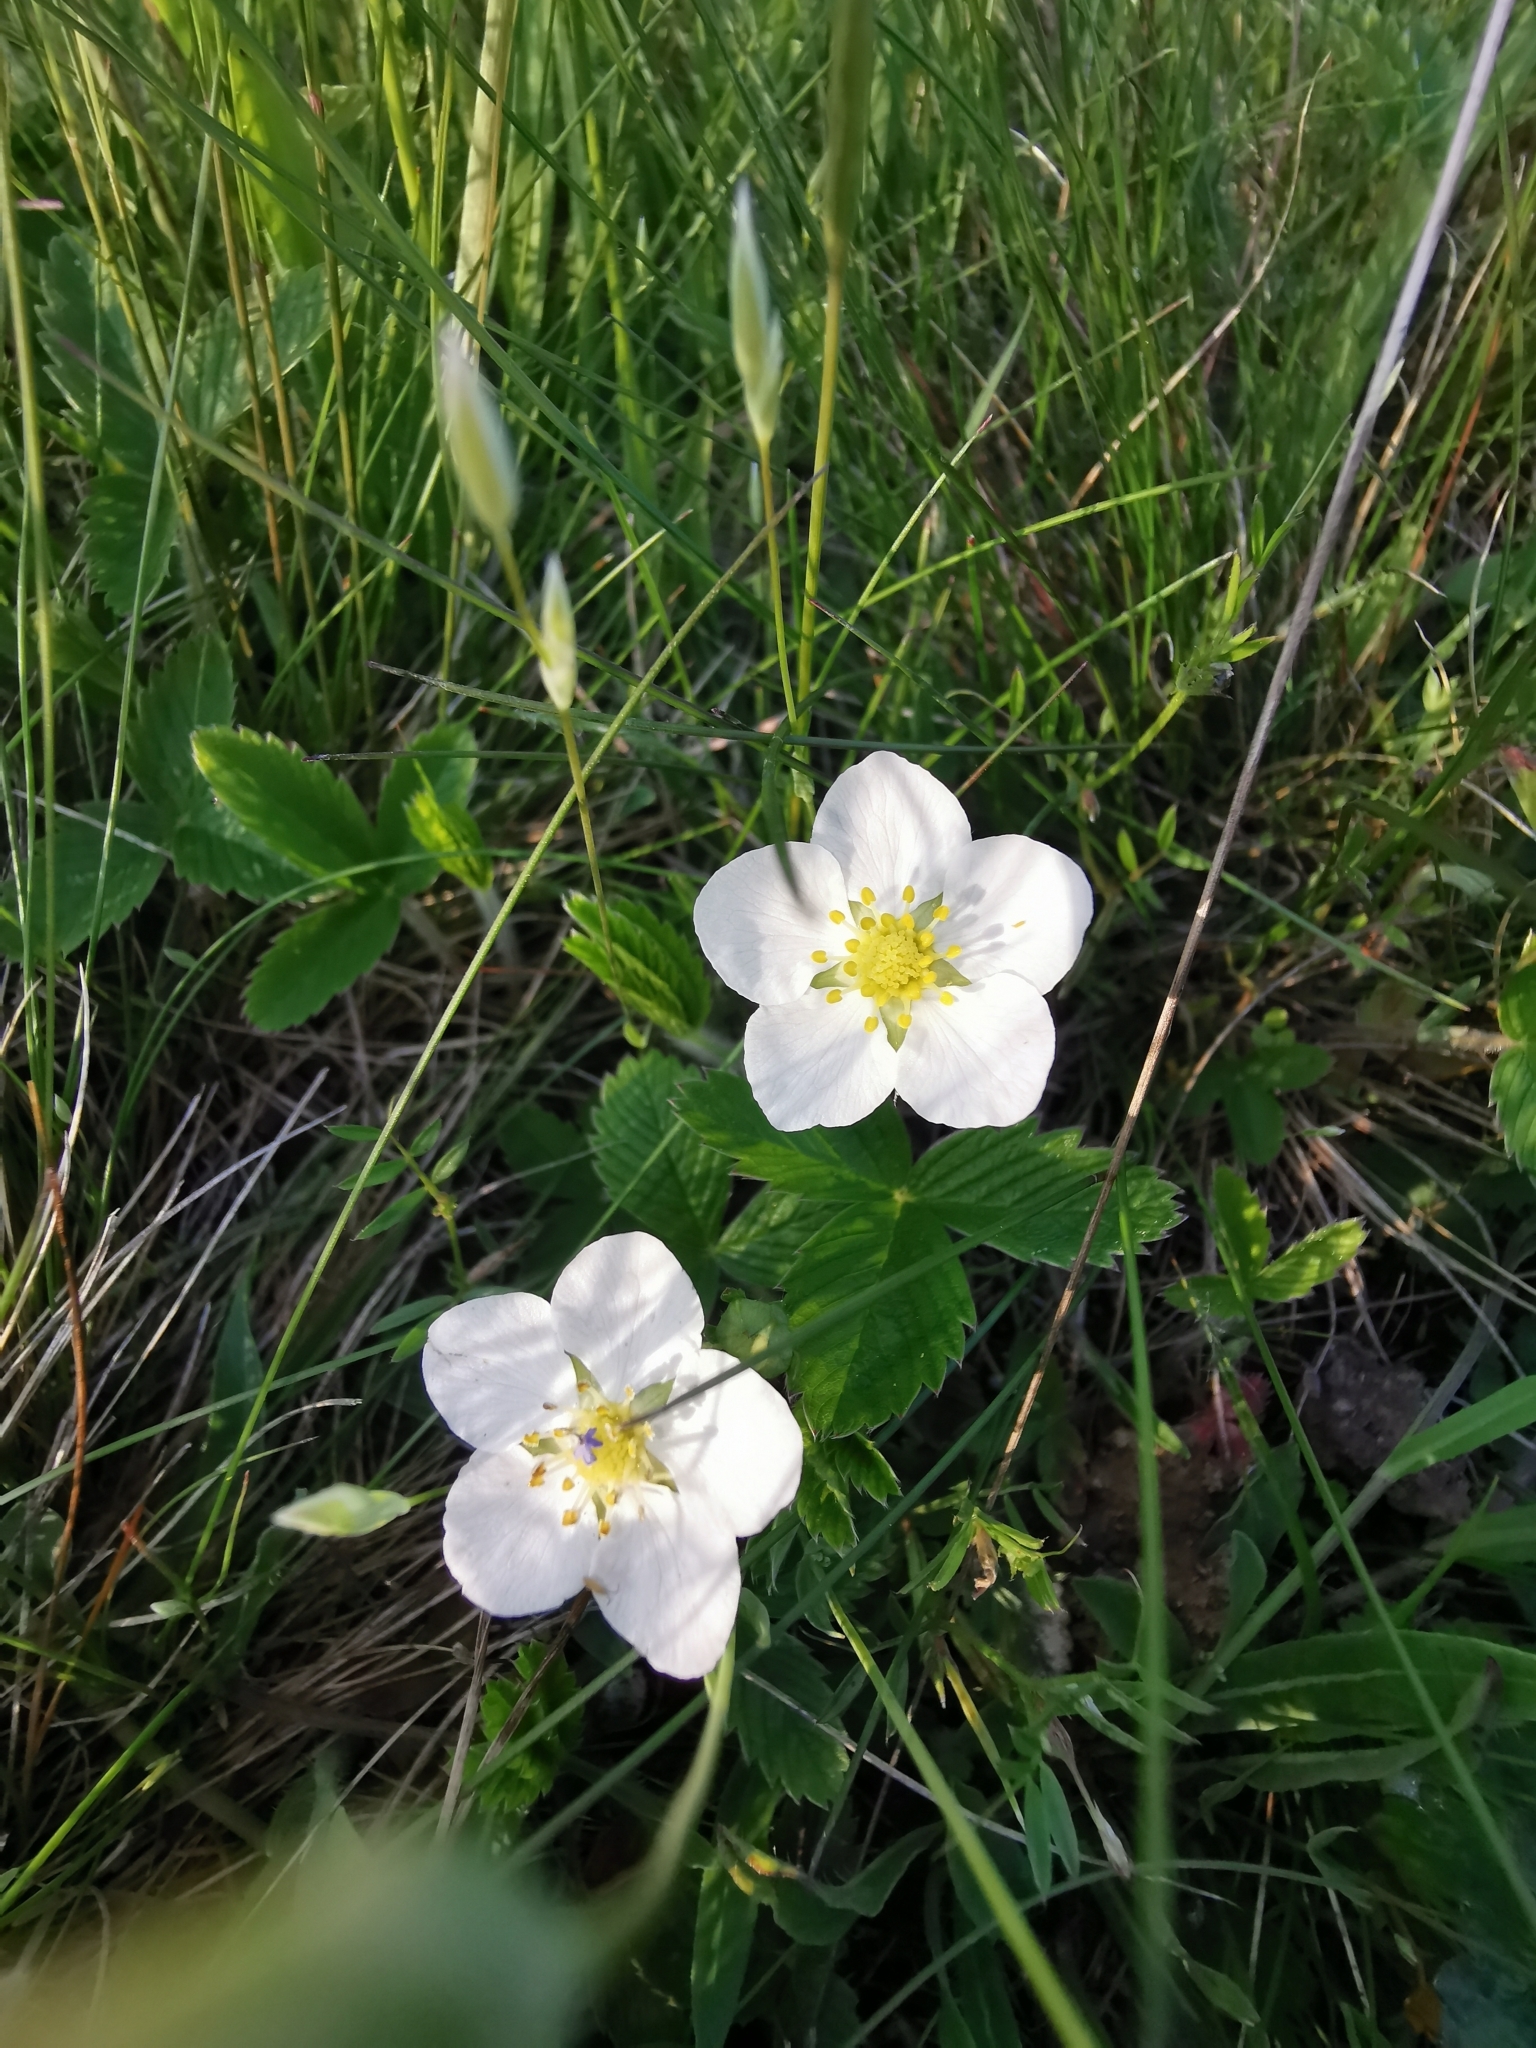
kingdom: Plantae
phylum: Tracheophyta
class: Magnoliopsida
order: Rosales
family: Rosaceae
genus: Fragaria
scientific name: Fragaria viridis
